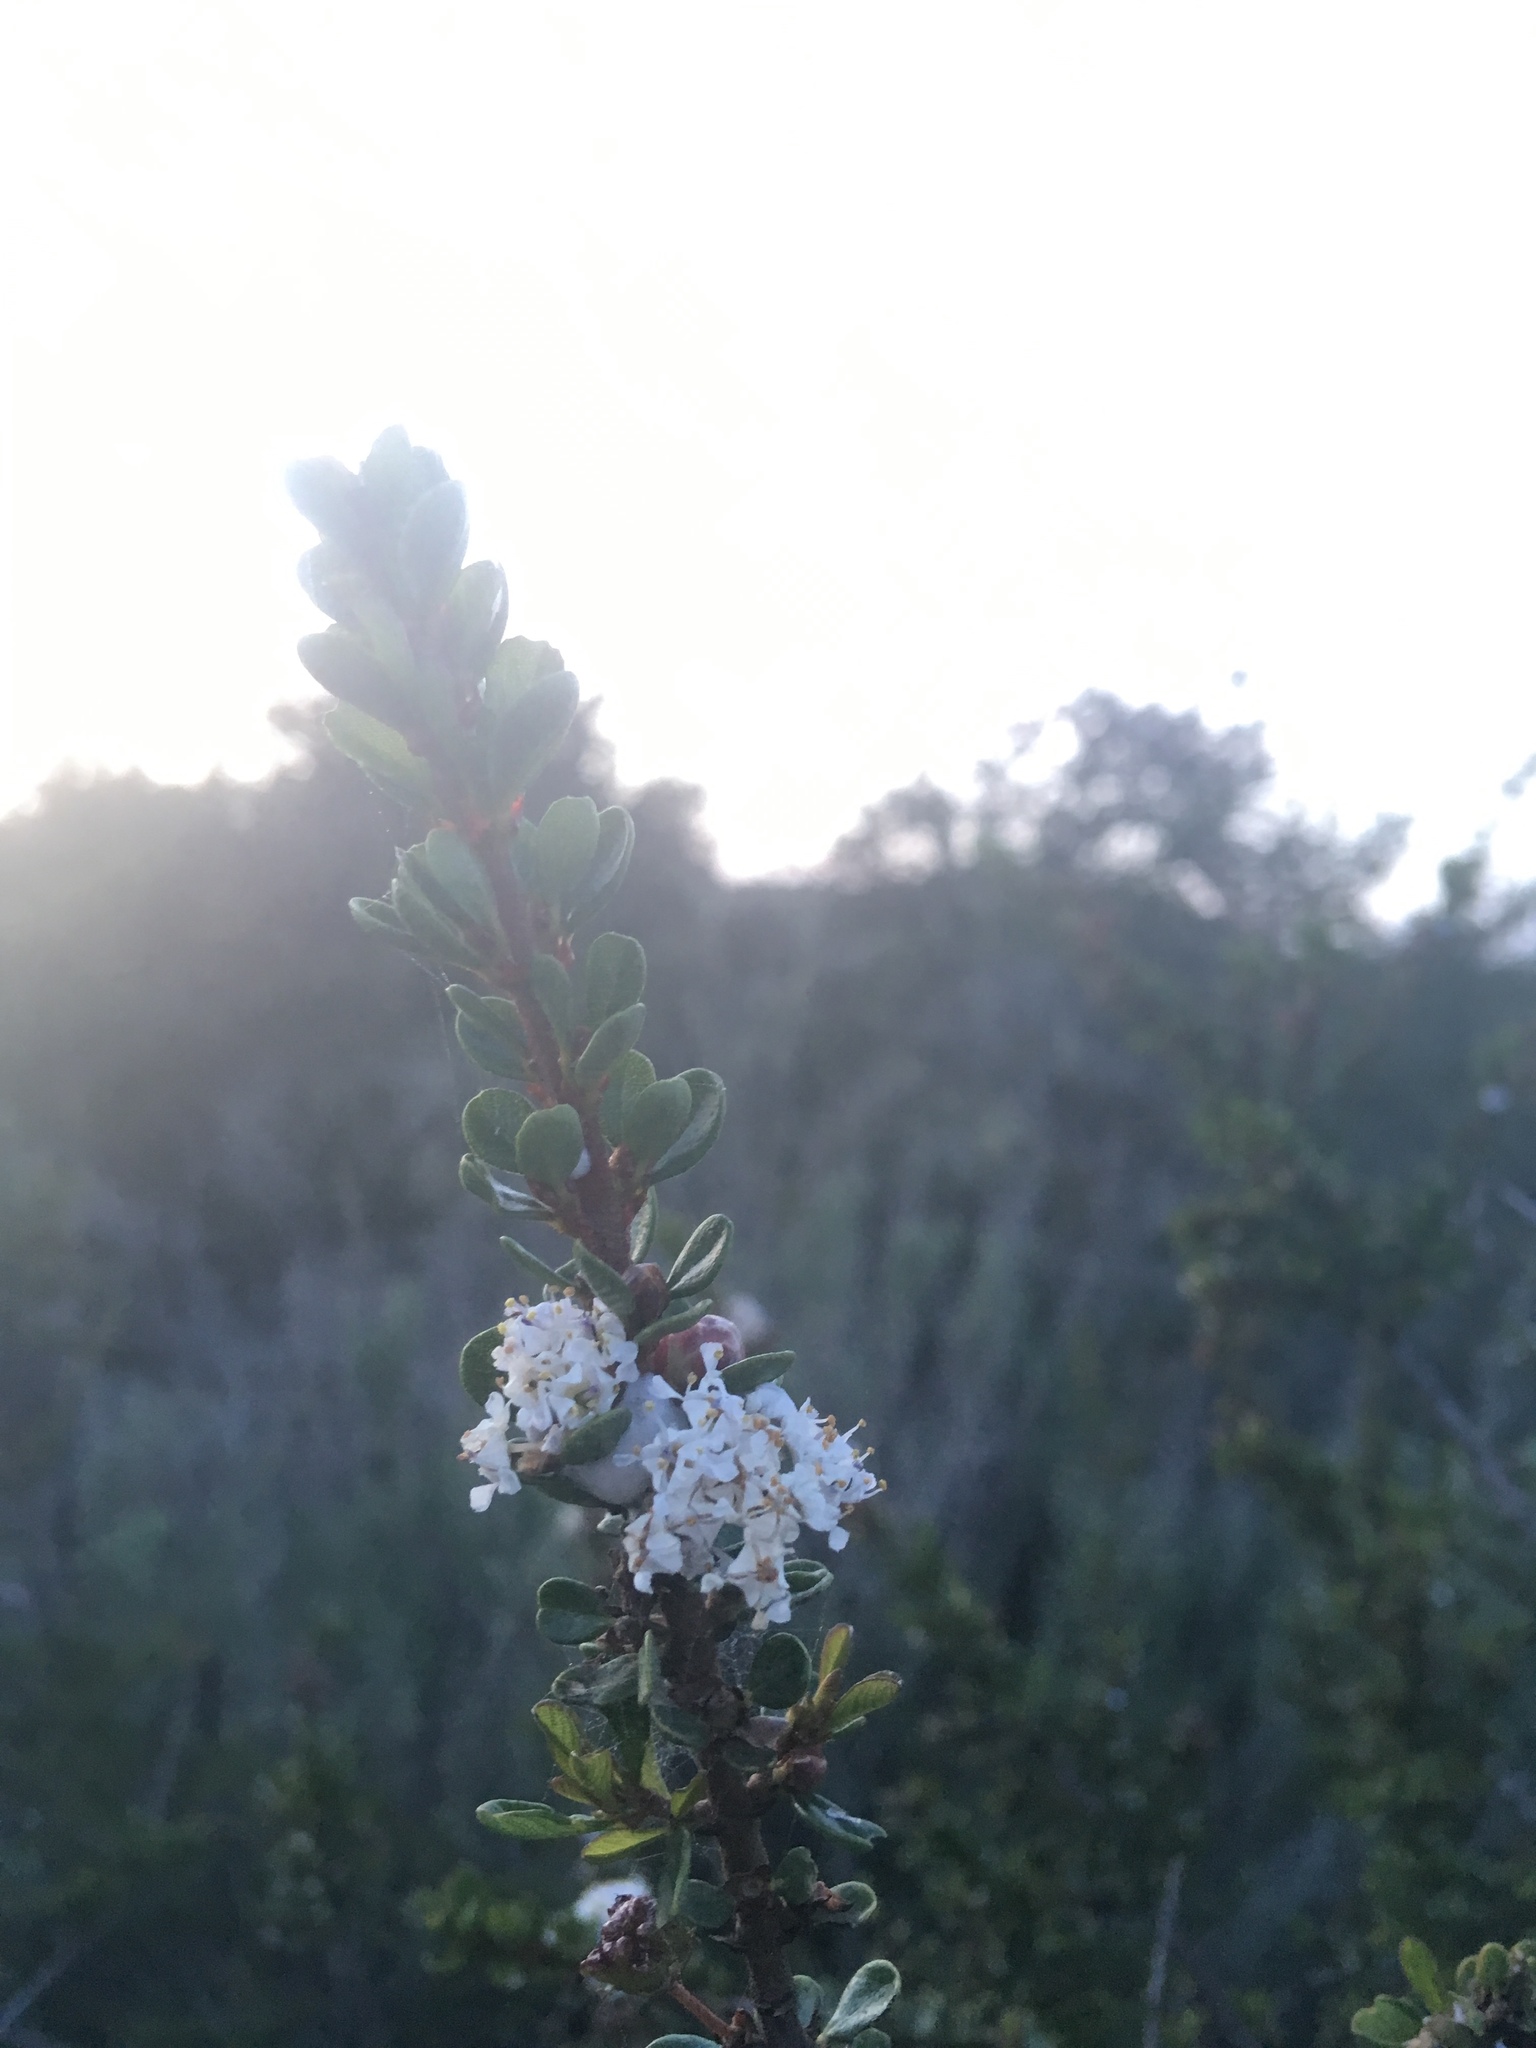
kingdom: Plantae
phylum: Tracheophyta
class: Magnoliopsida
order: Rosales
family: Rhamnaceae
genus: Ceanothus
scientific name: Ceanothus cuneatus
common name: Cuneate ceanothus
